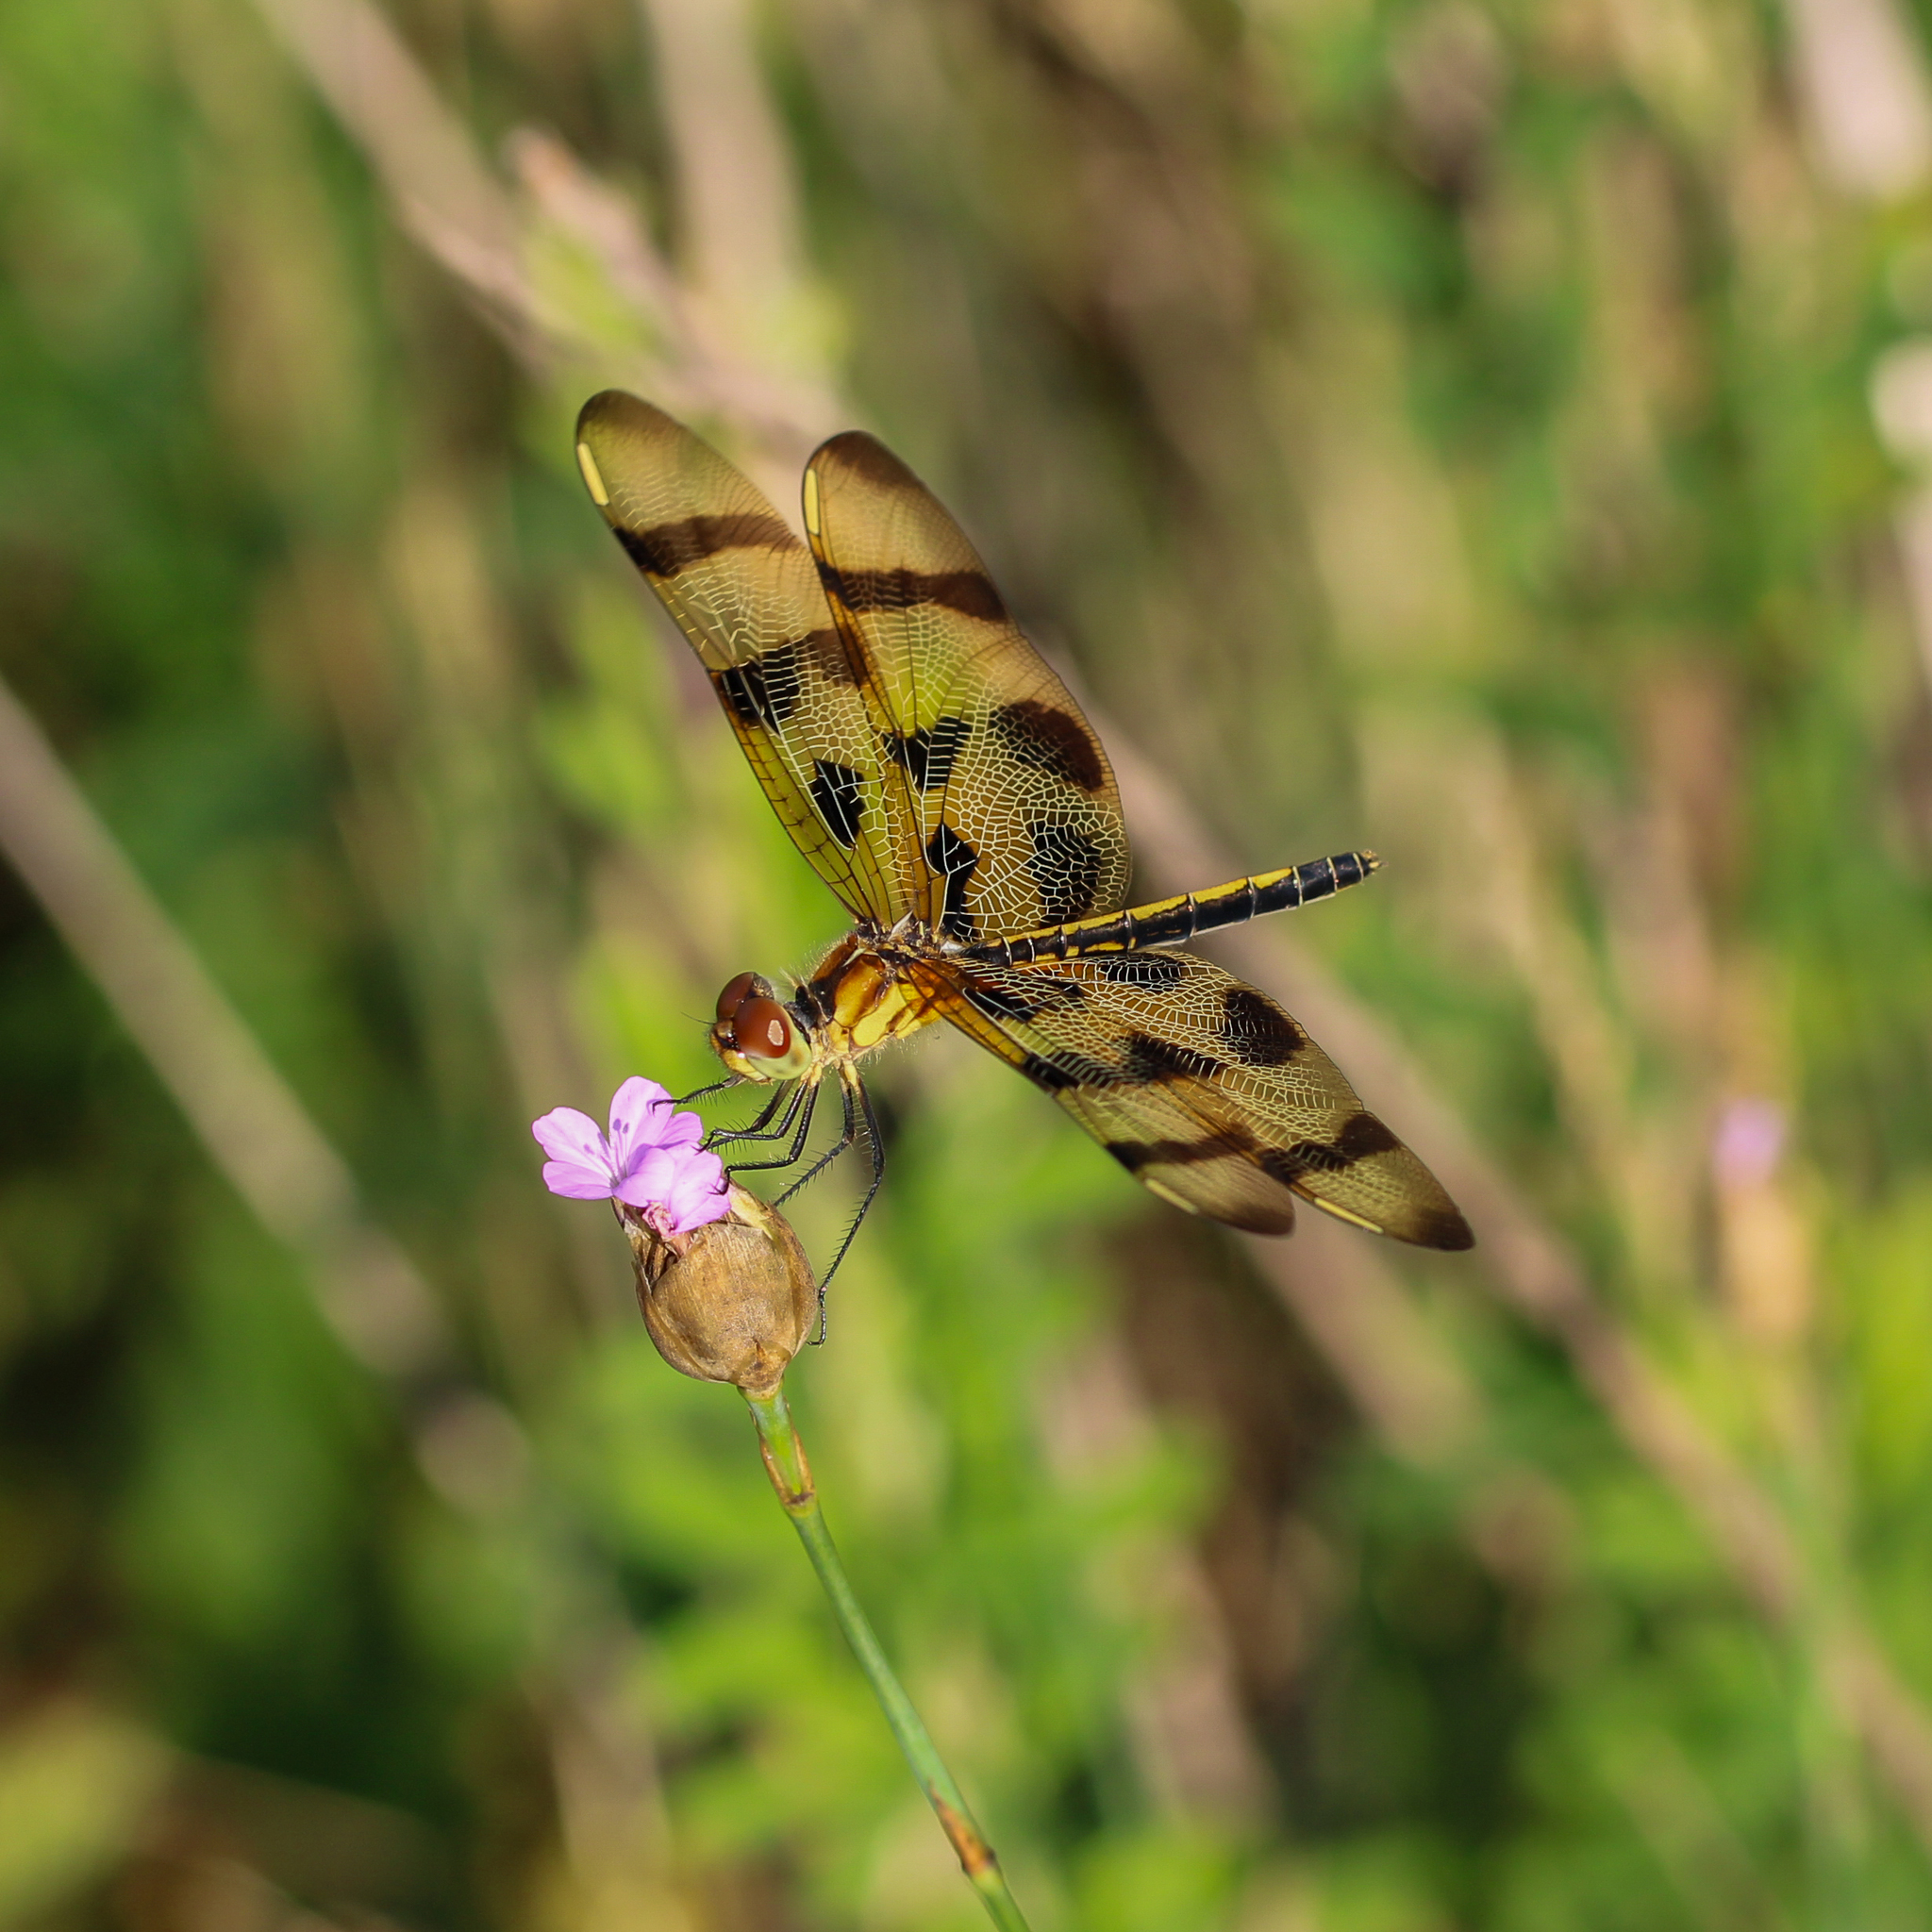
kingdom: Animalia
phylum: Arthropoda
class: Insecta
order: Odonata
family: Libellulidae
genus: Celithemis
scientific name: Celithemis eponina
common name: Halloween pennant
